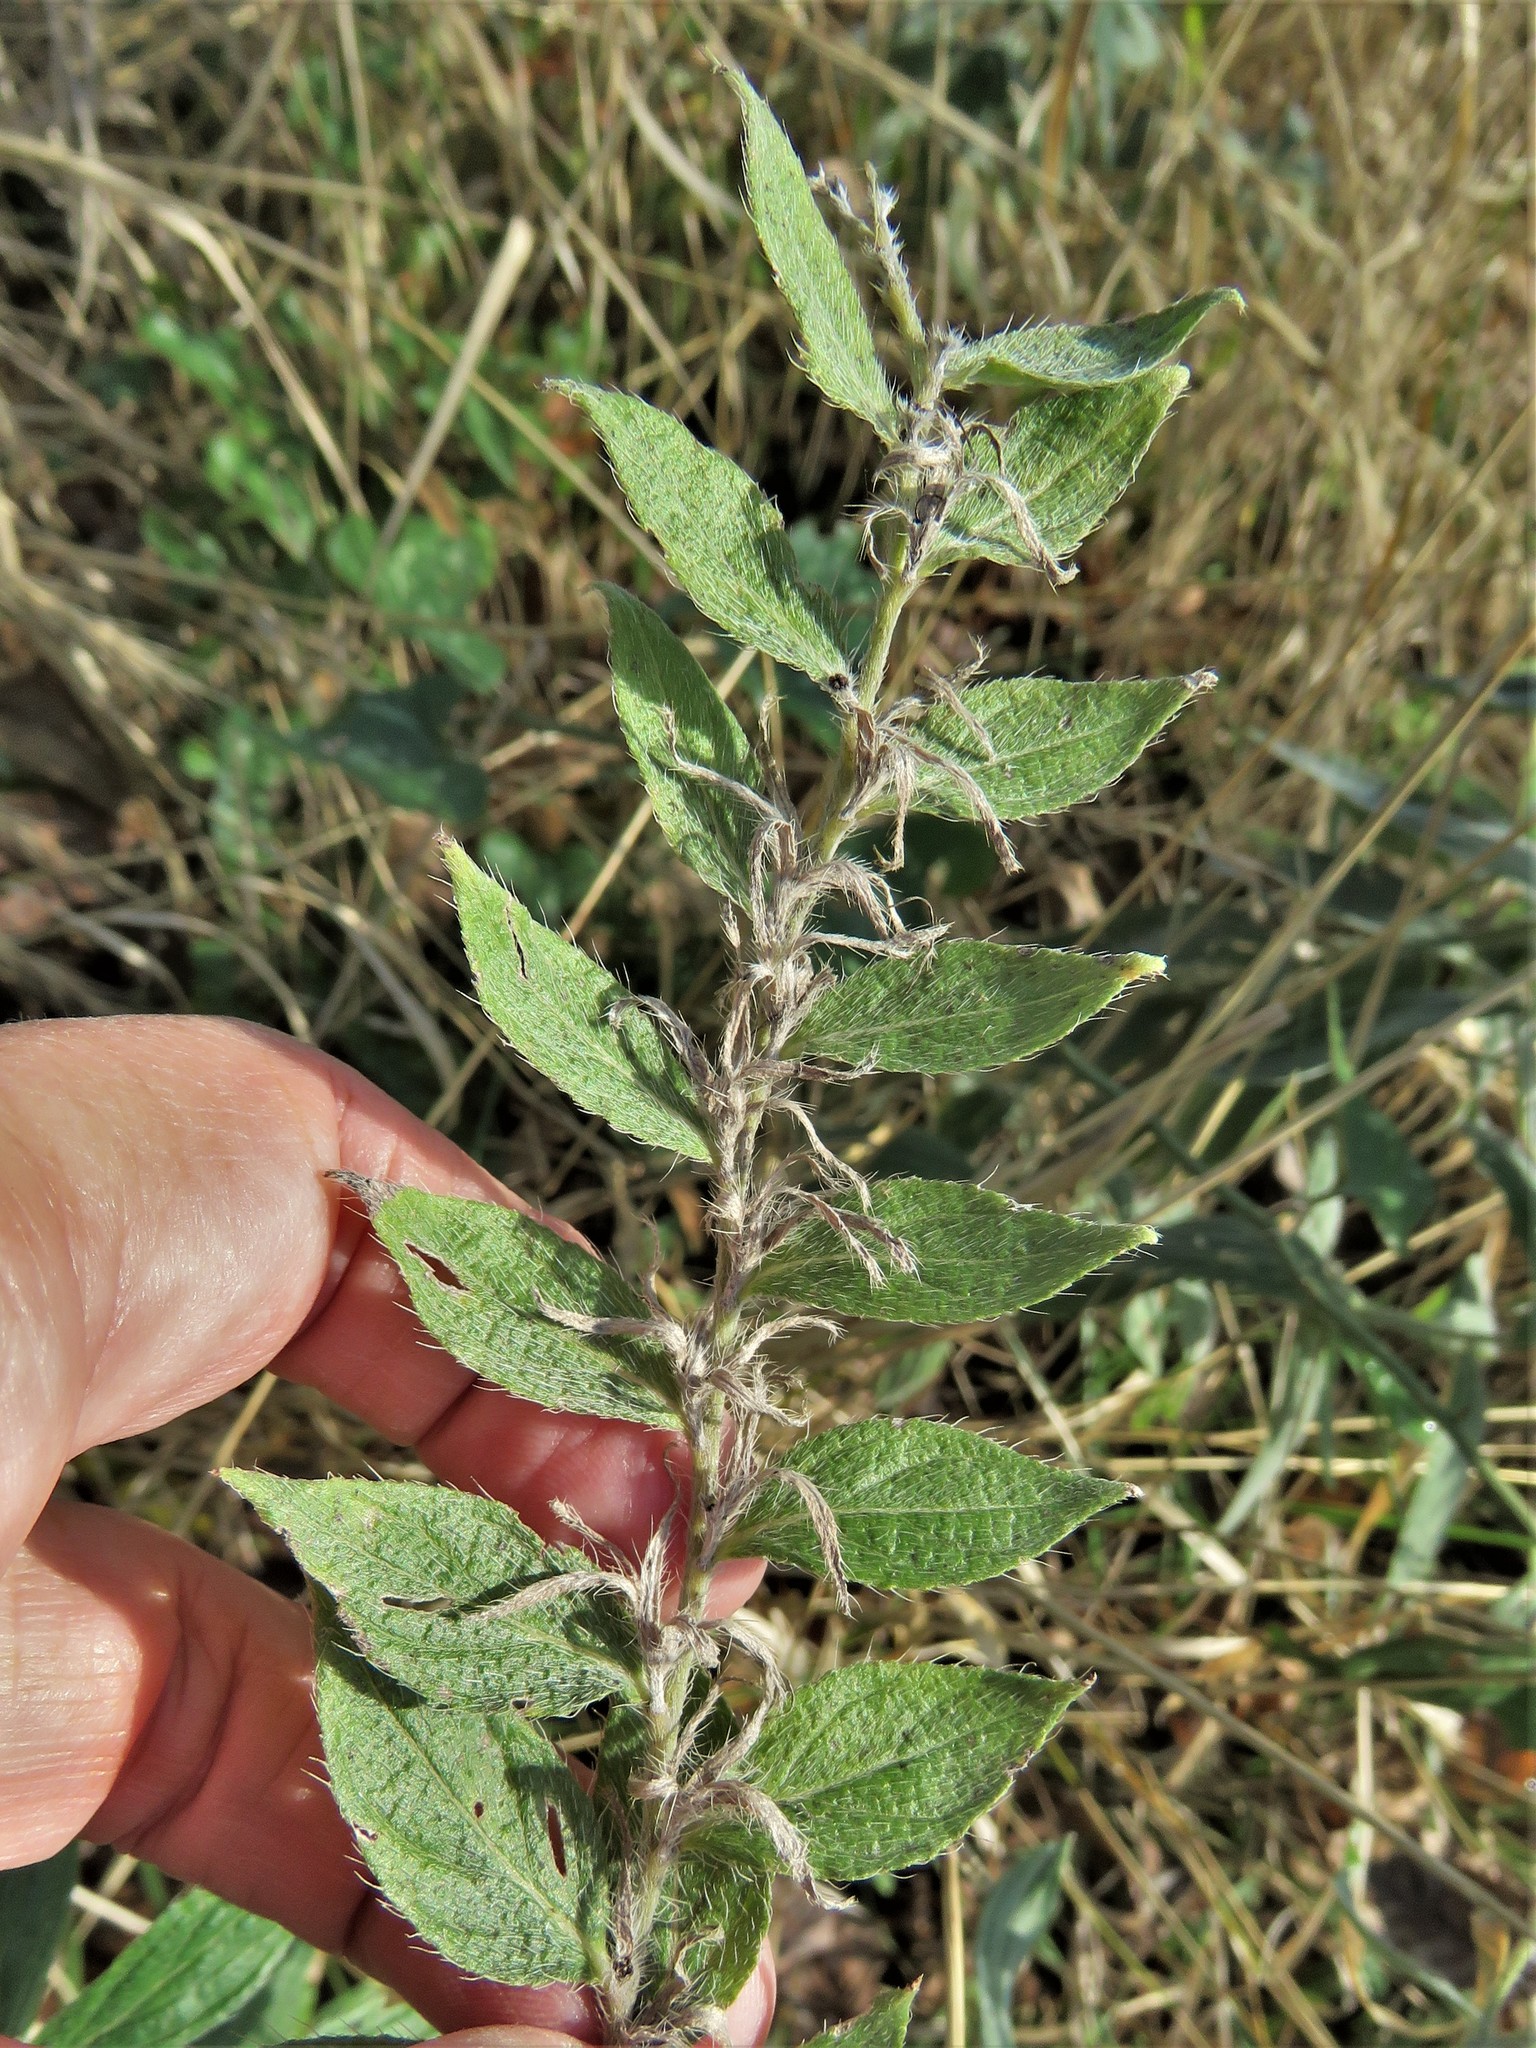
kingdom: Plantae
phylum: Tracheophyta
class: Magnoliopsida
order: Boraginales
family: Boraginaceae
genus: Lithospermum
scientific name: Lithospermum caroliniense
